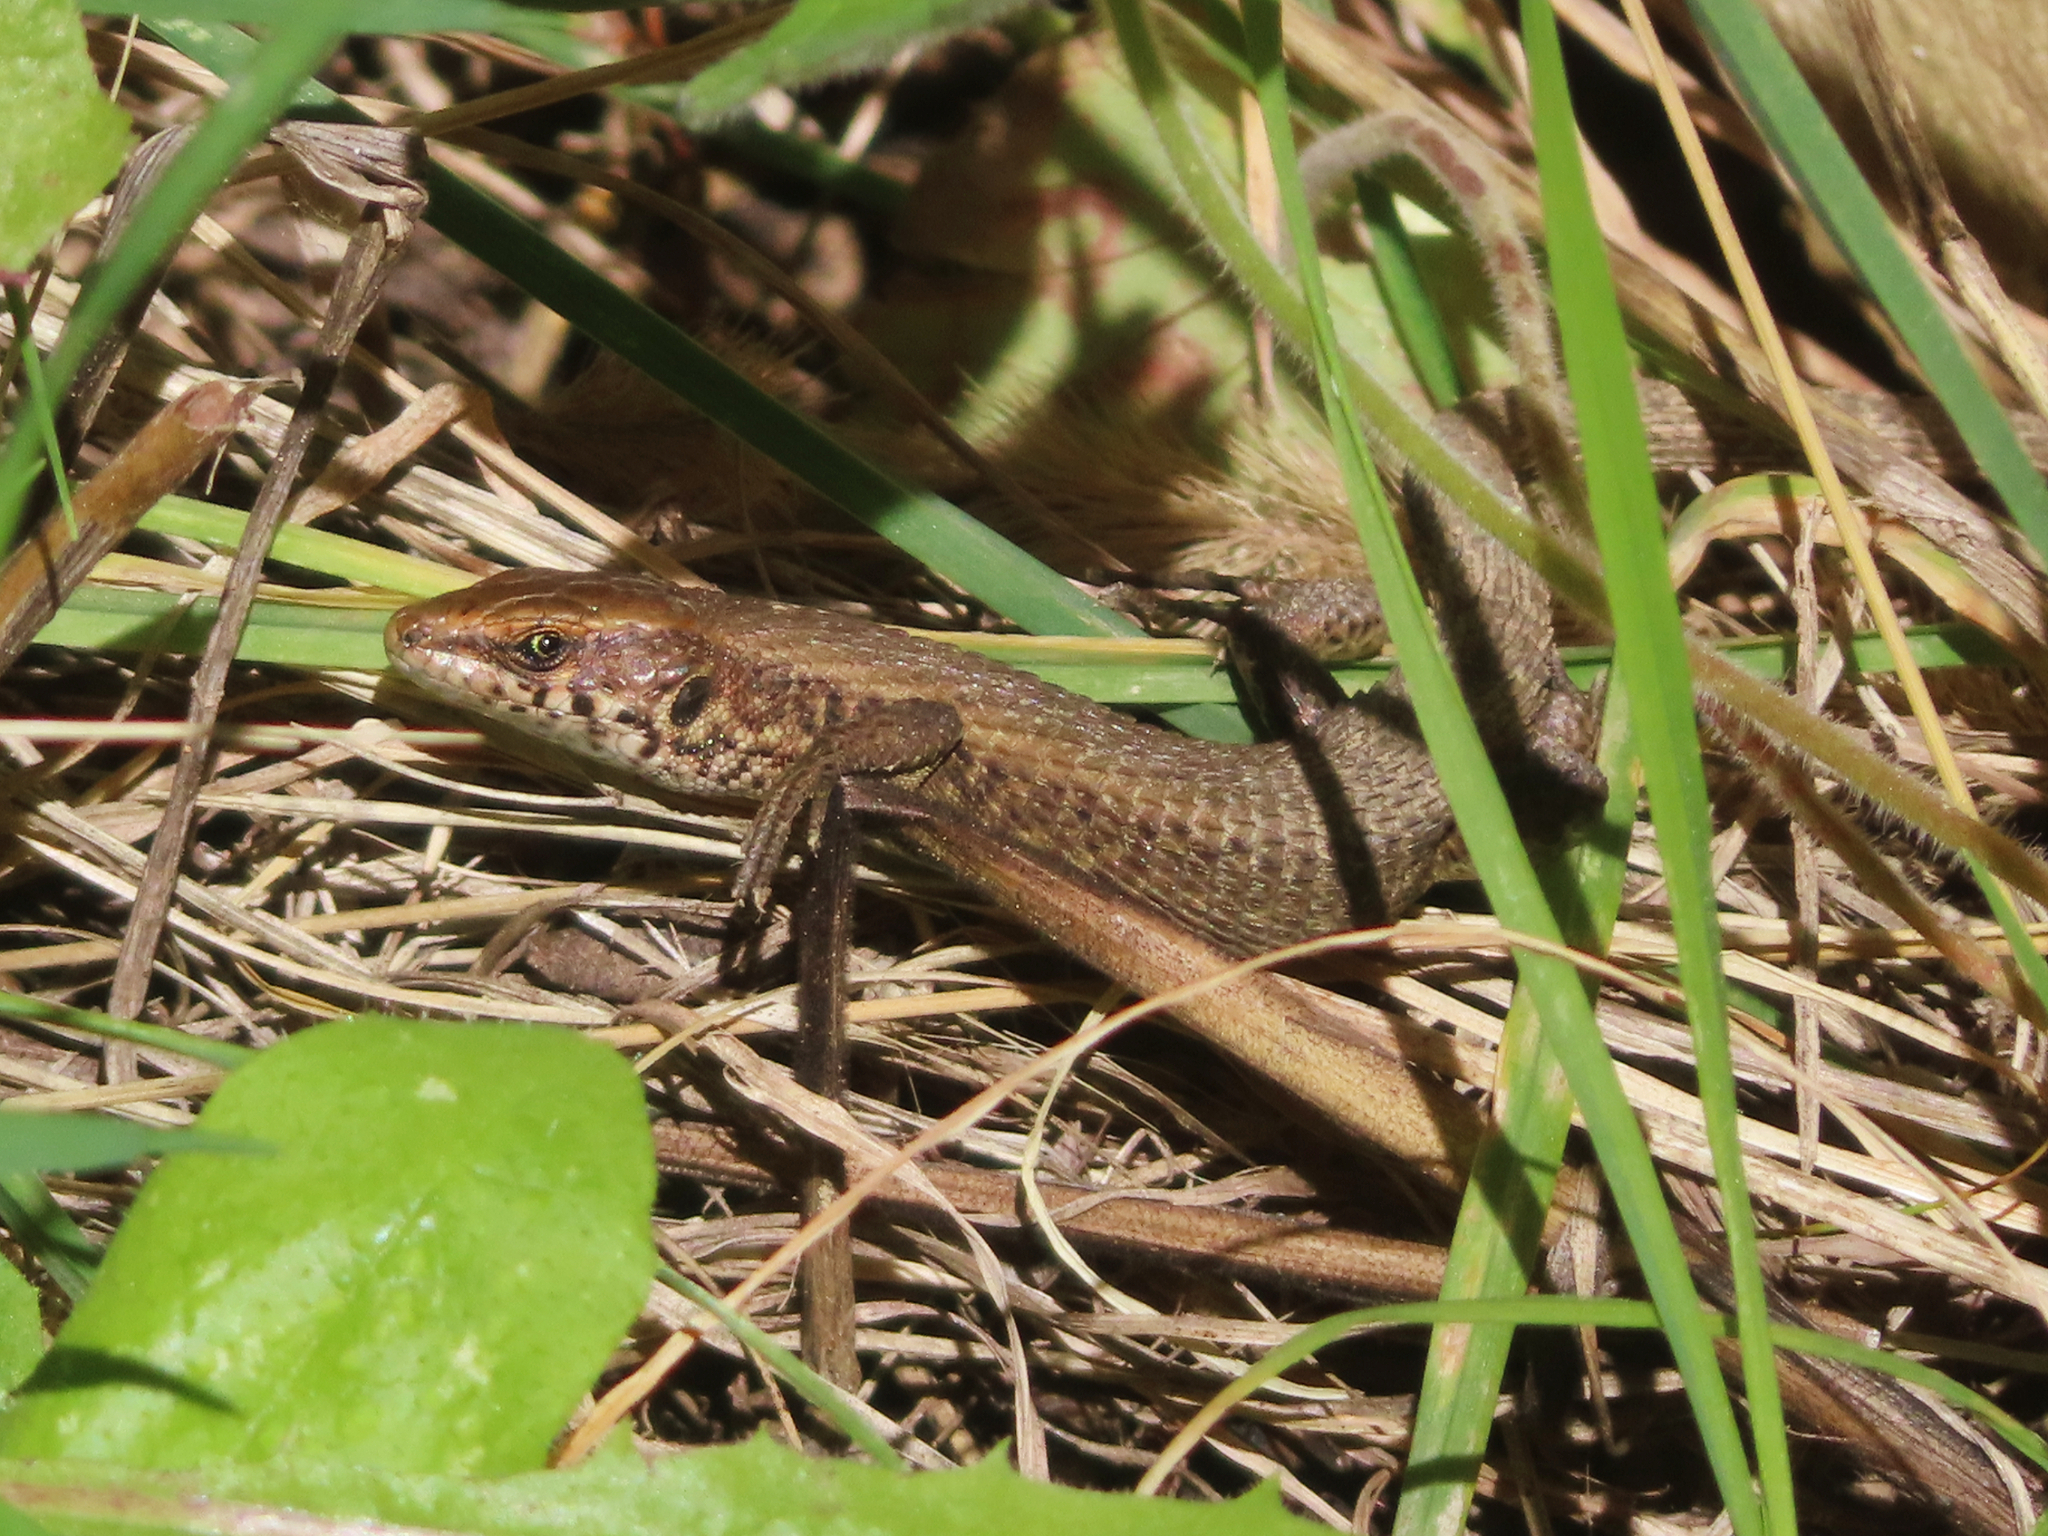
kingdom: Animalia
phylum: Chordata
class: Squamata
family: Lacertidae
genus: Algyroides
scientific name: Algyroides moreoticus
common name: Greek algyroides
